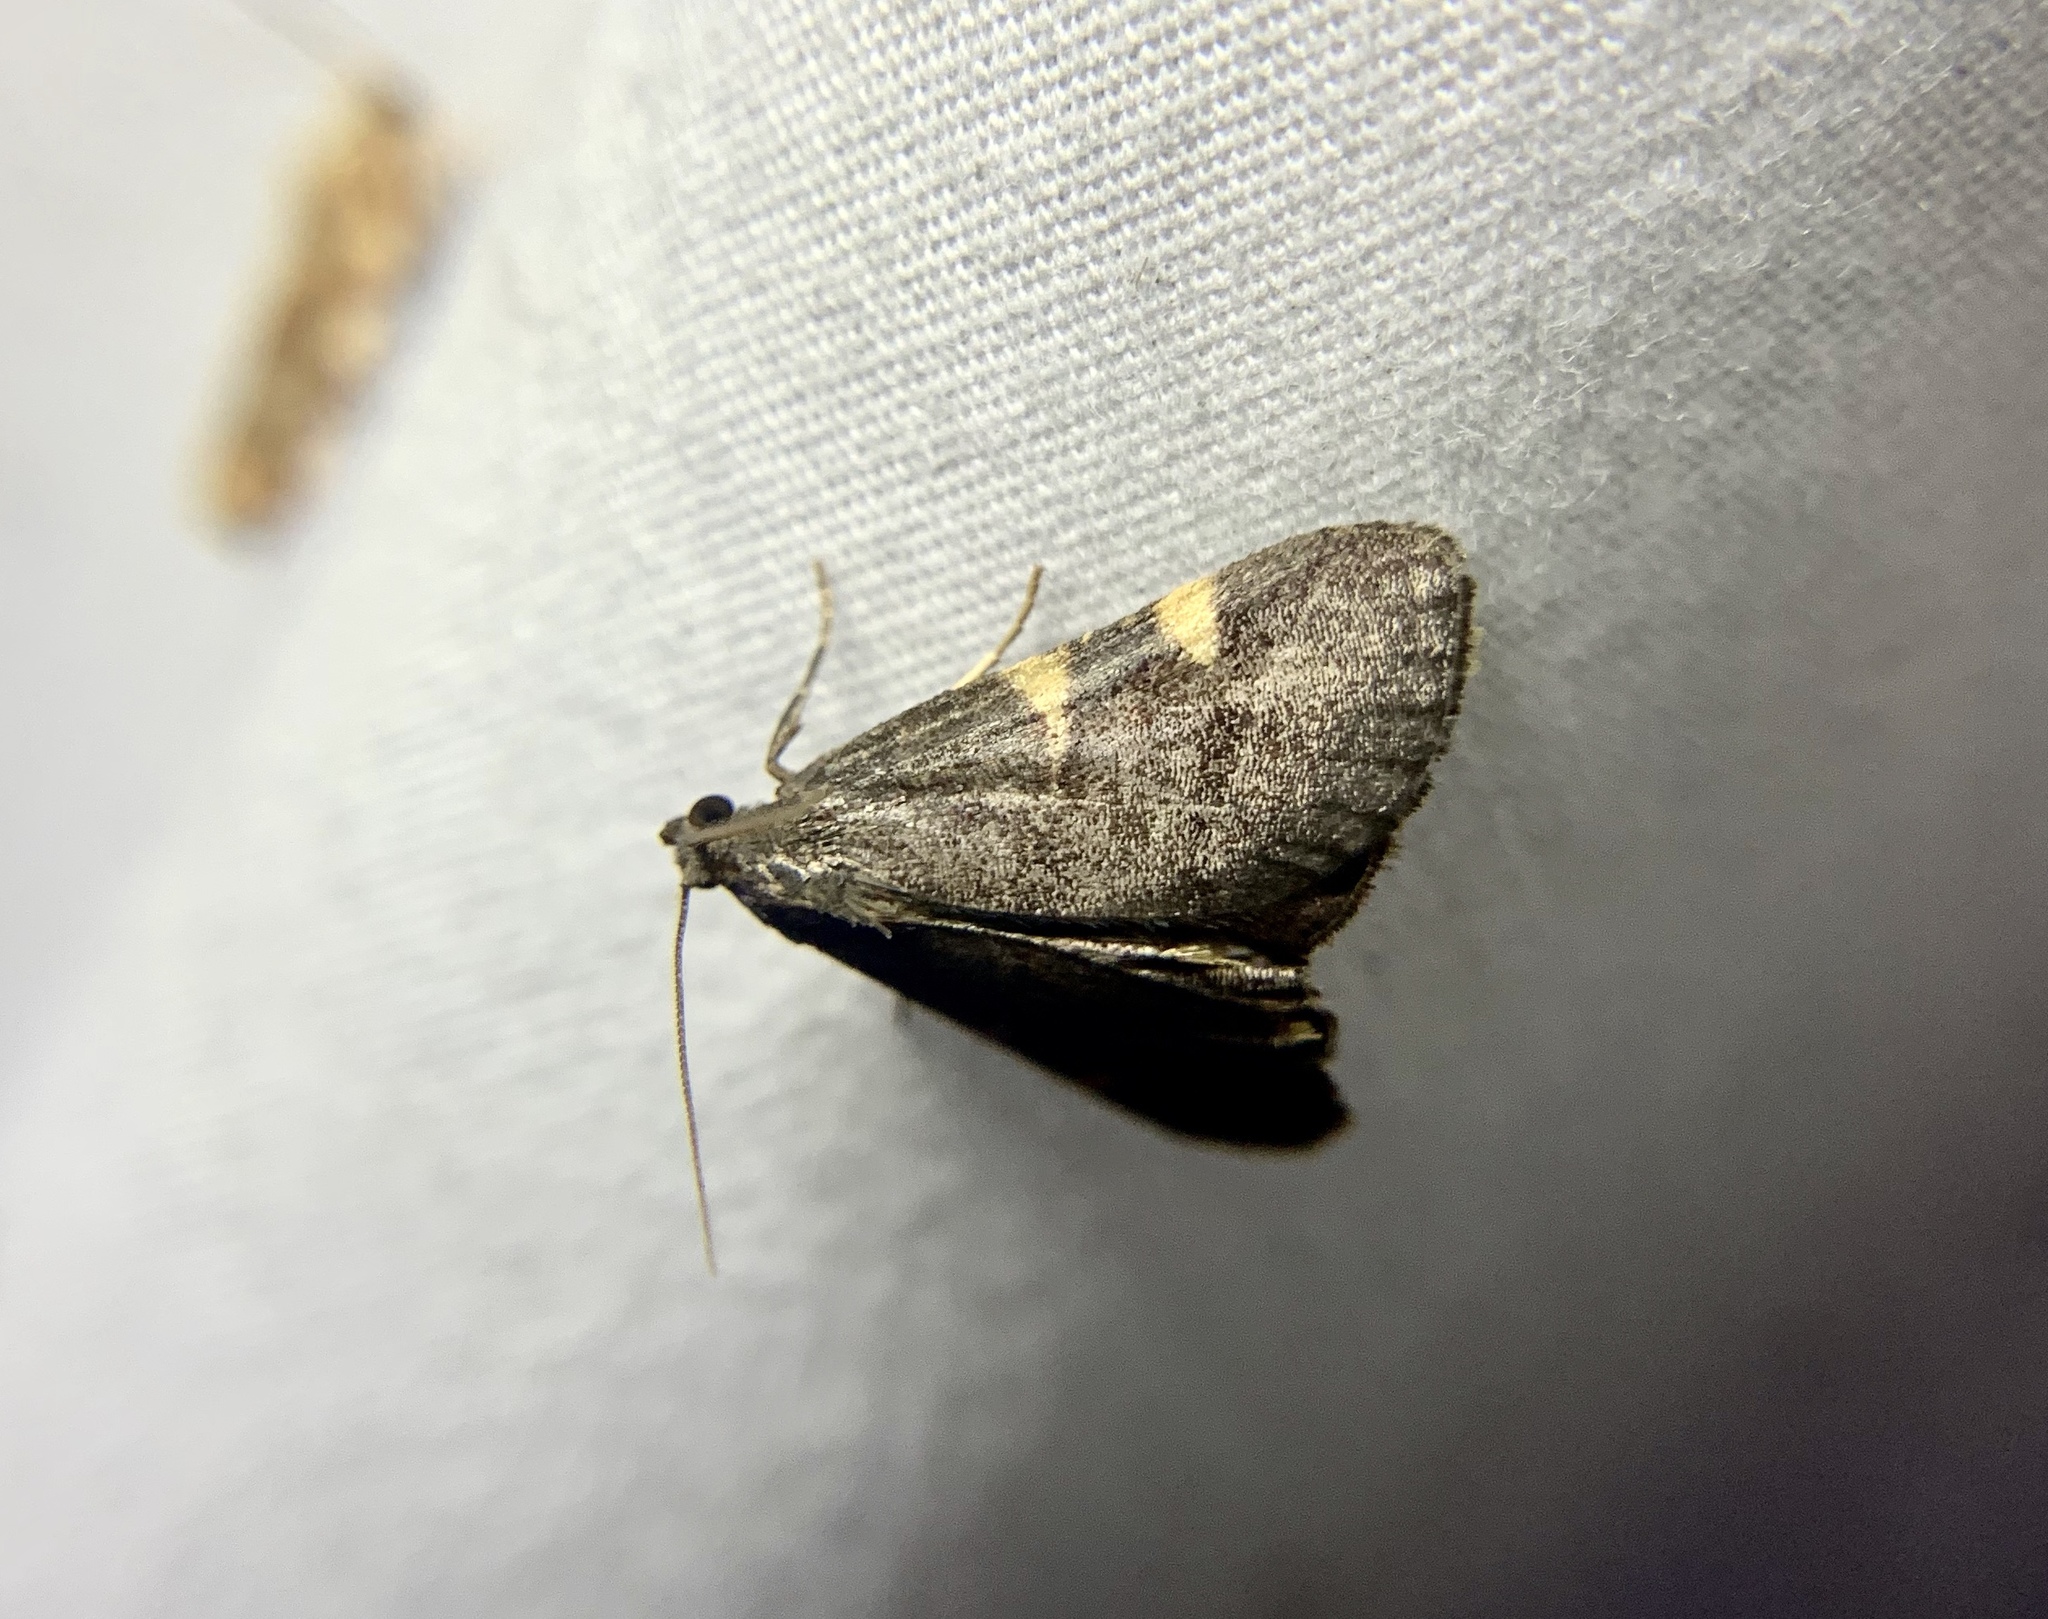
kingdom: Animalia
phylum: Arthropoda
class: Insecta
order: Lepidoptera
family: Pyralidae
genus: Hypsopygia
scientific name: Hypsopygia olinalis
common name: Yellow-fringed dolichomia moth
